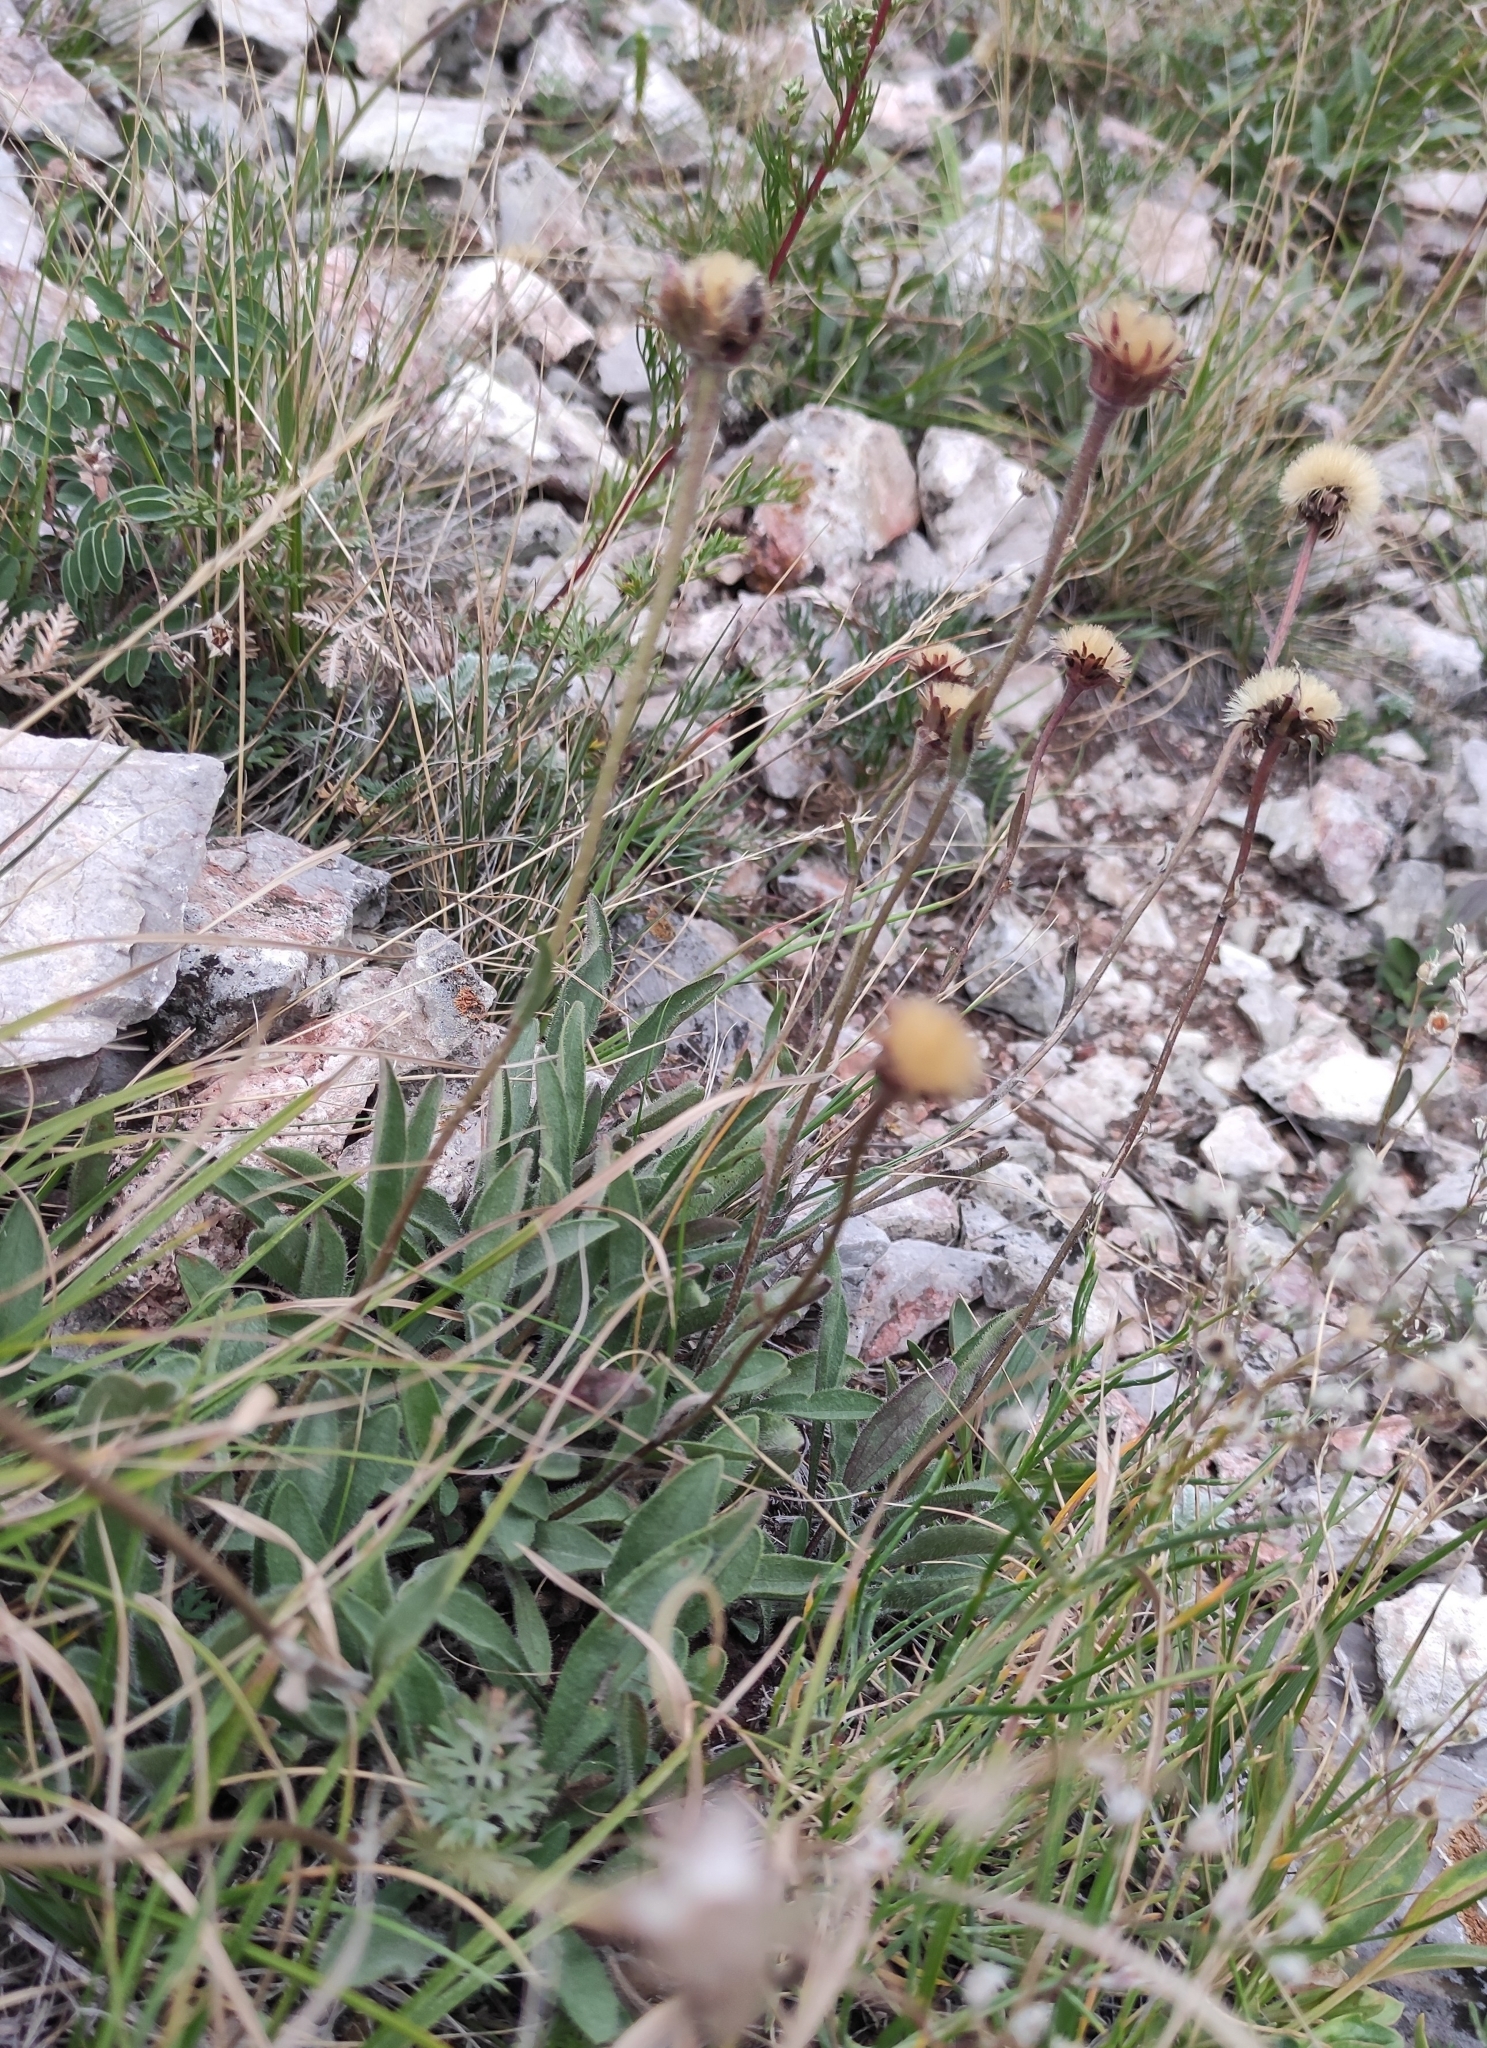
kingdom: Plantae
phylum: Tracheophyta
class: Magnoliopsida
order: Asterales
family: Asteraceae
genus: Aster
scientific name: Aster alpinus
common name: Alpine aster
